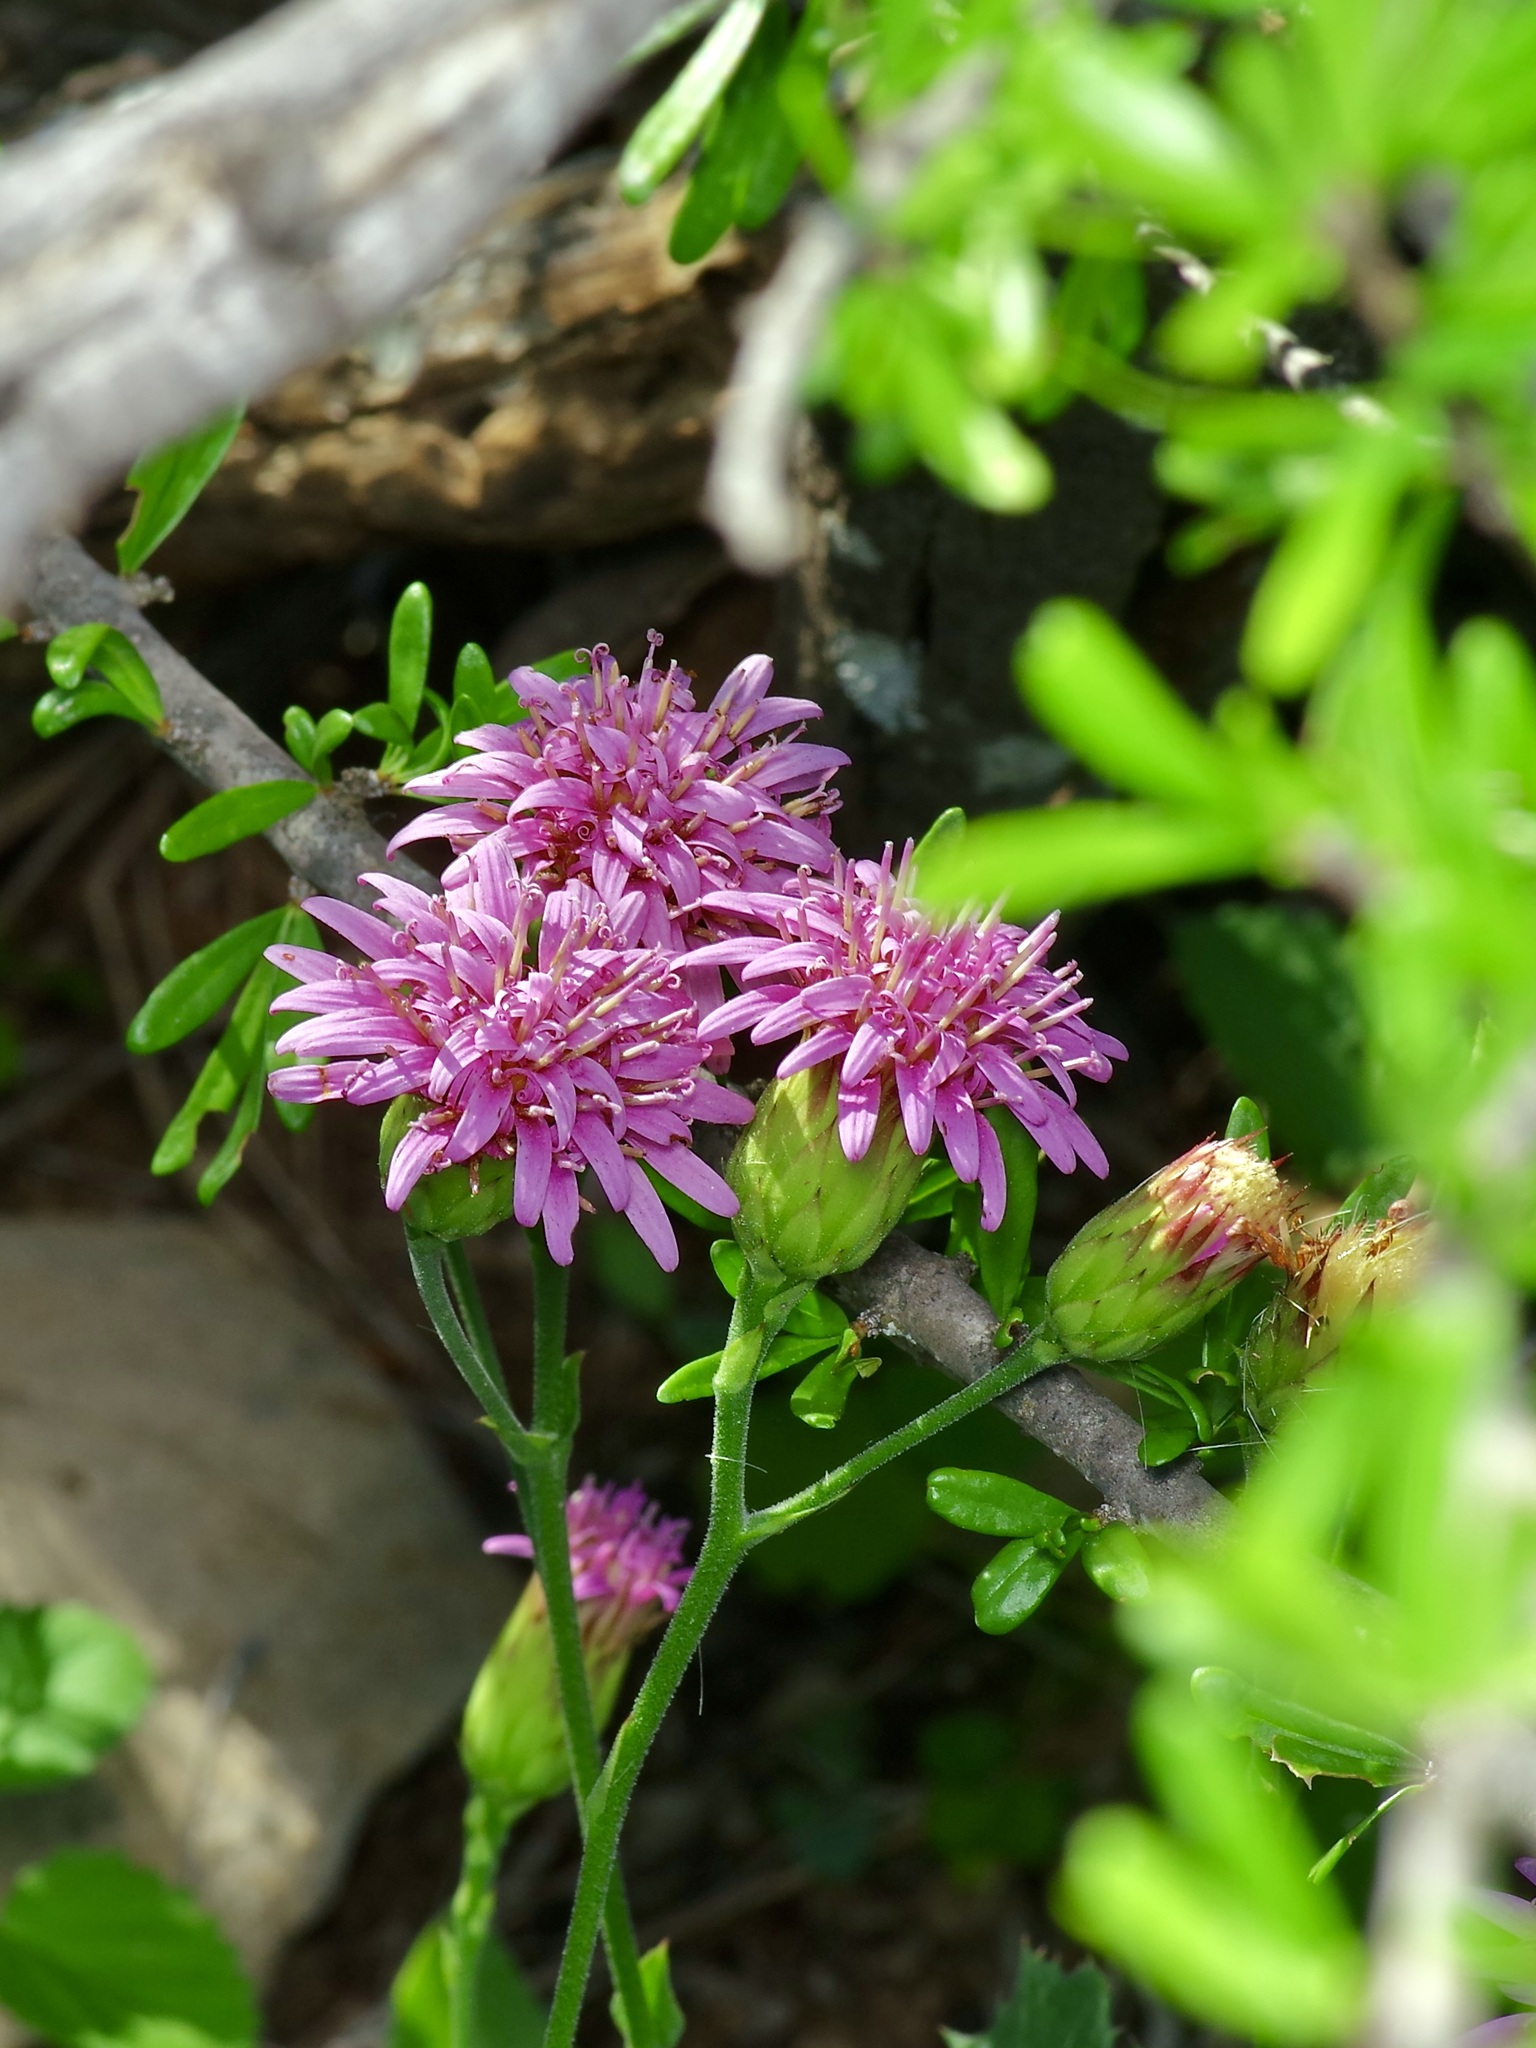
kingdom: Plantae
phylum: Tracheophyta
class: Magnoliopsida
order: Asterales
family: Asteraceae
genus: Acourtia
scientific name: Acourtia runcinata
